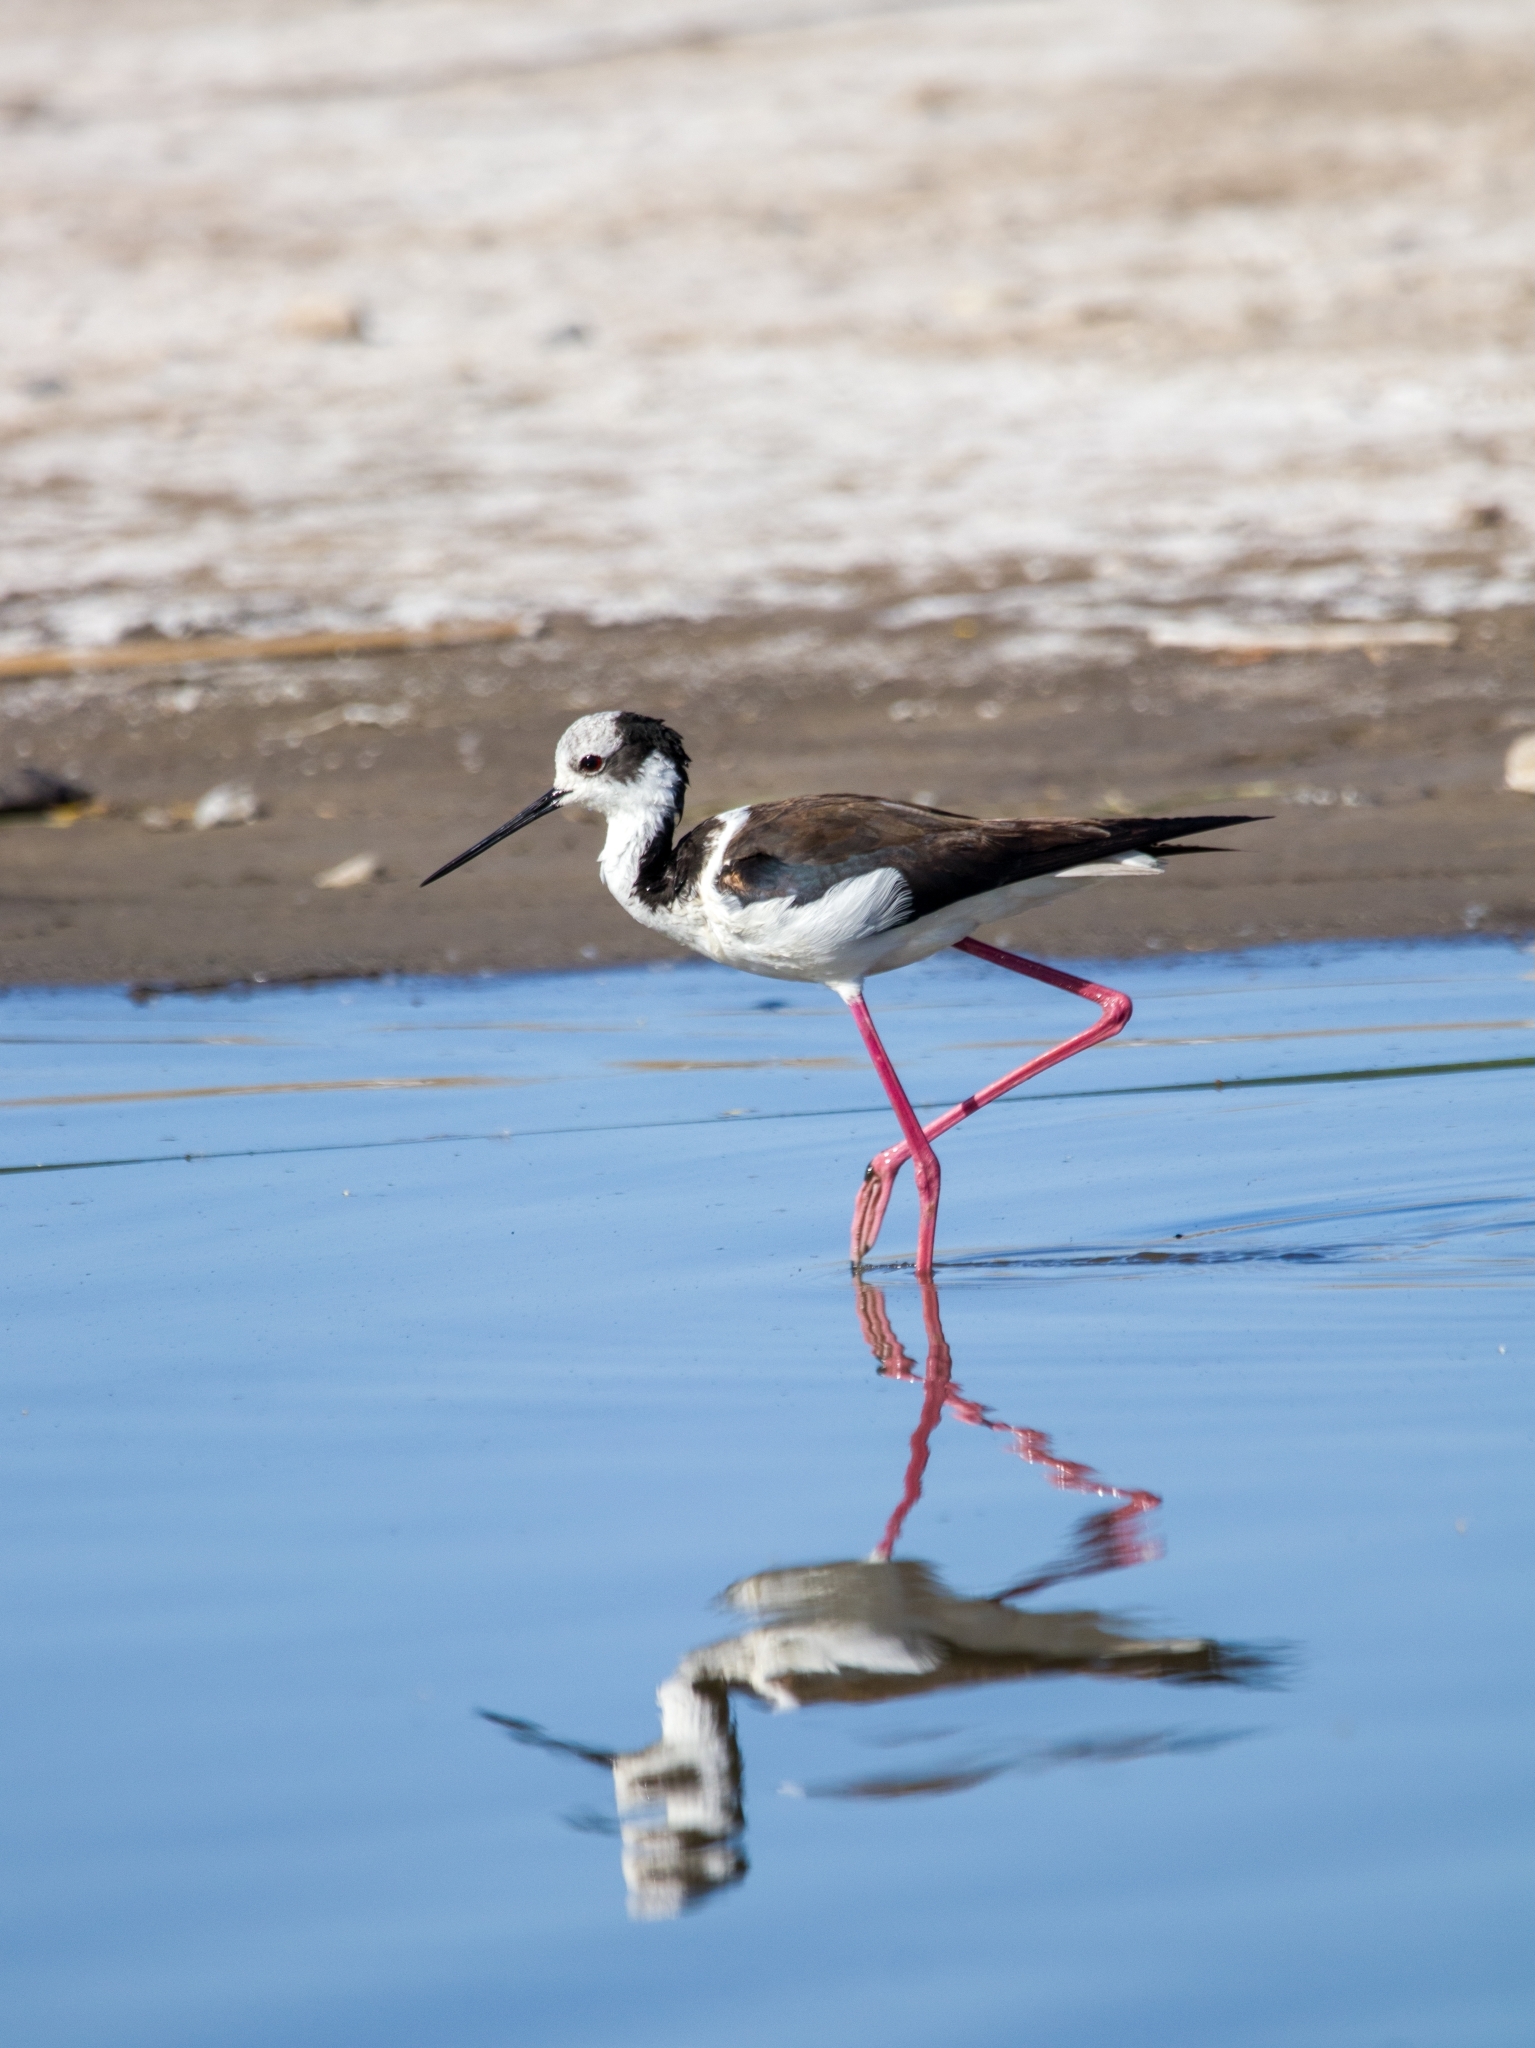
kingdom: Animalia
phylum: Chordata
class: Aves
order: Charadriiformes
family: Recurvirostridae
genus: Himantopus
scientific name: Himantopus mexicanus
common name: Black-necked stilt
